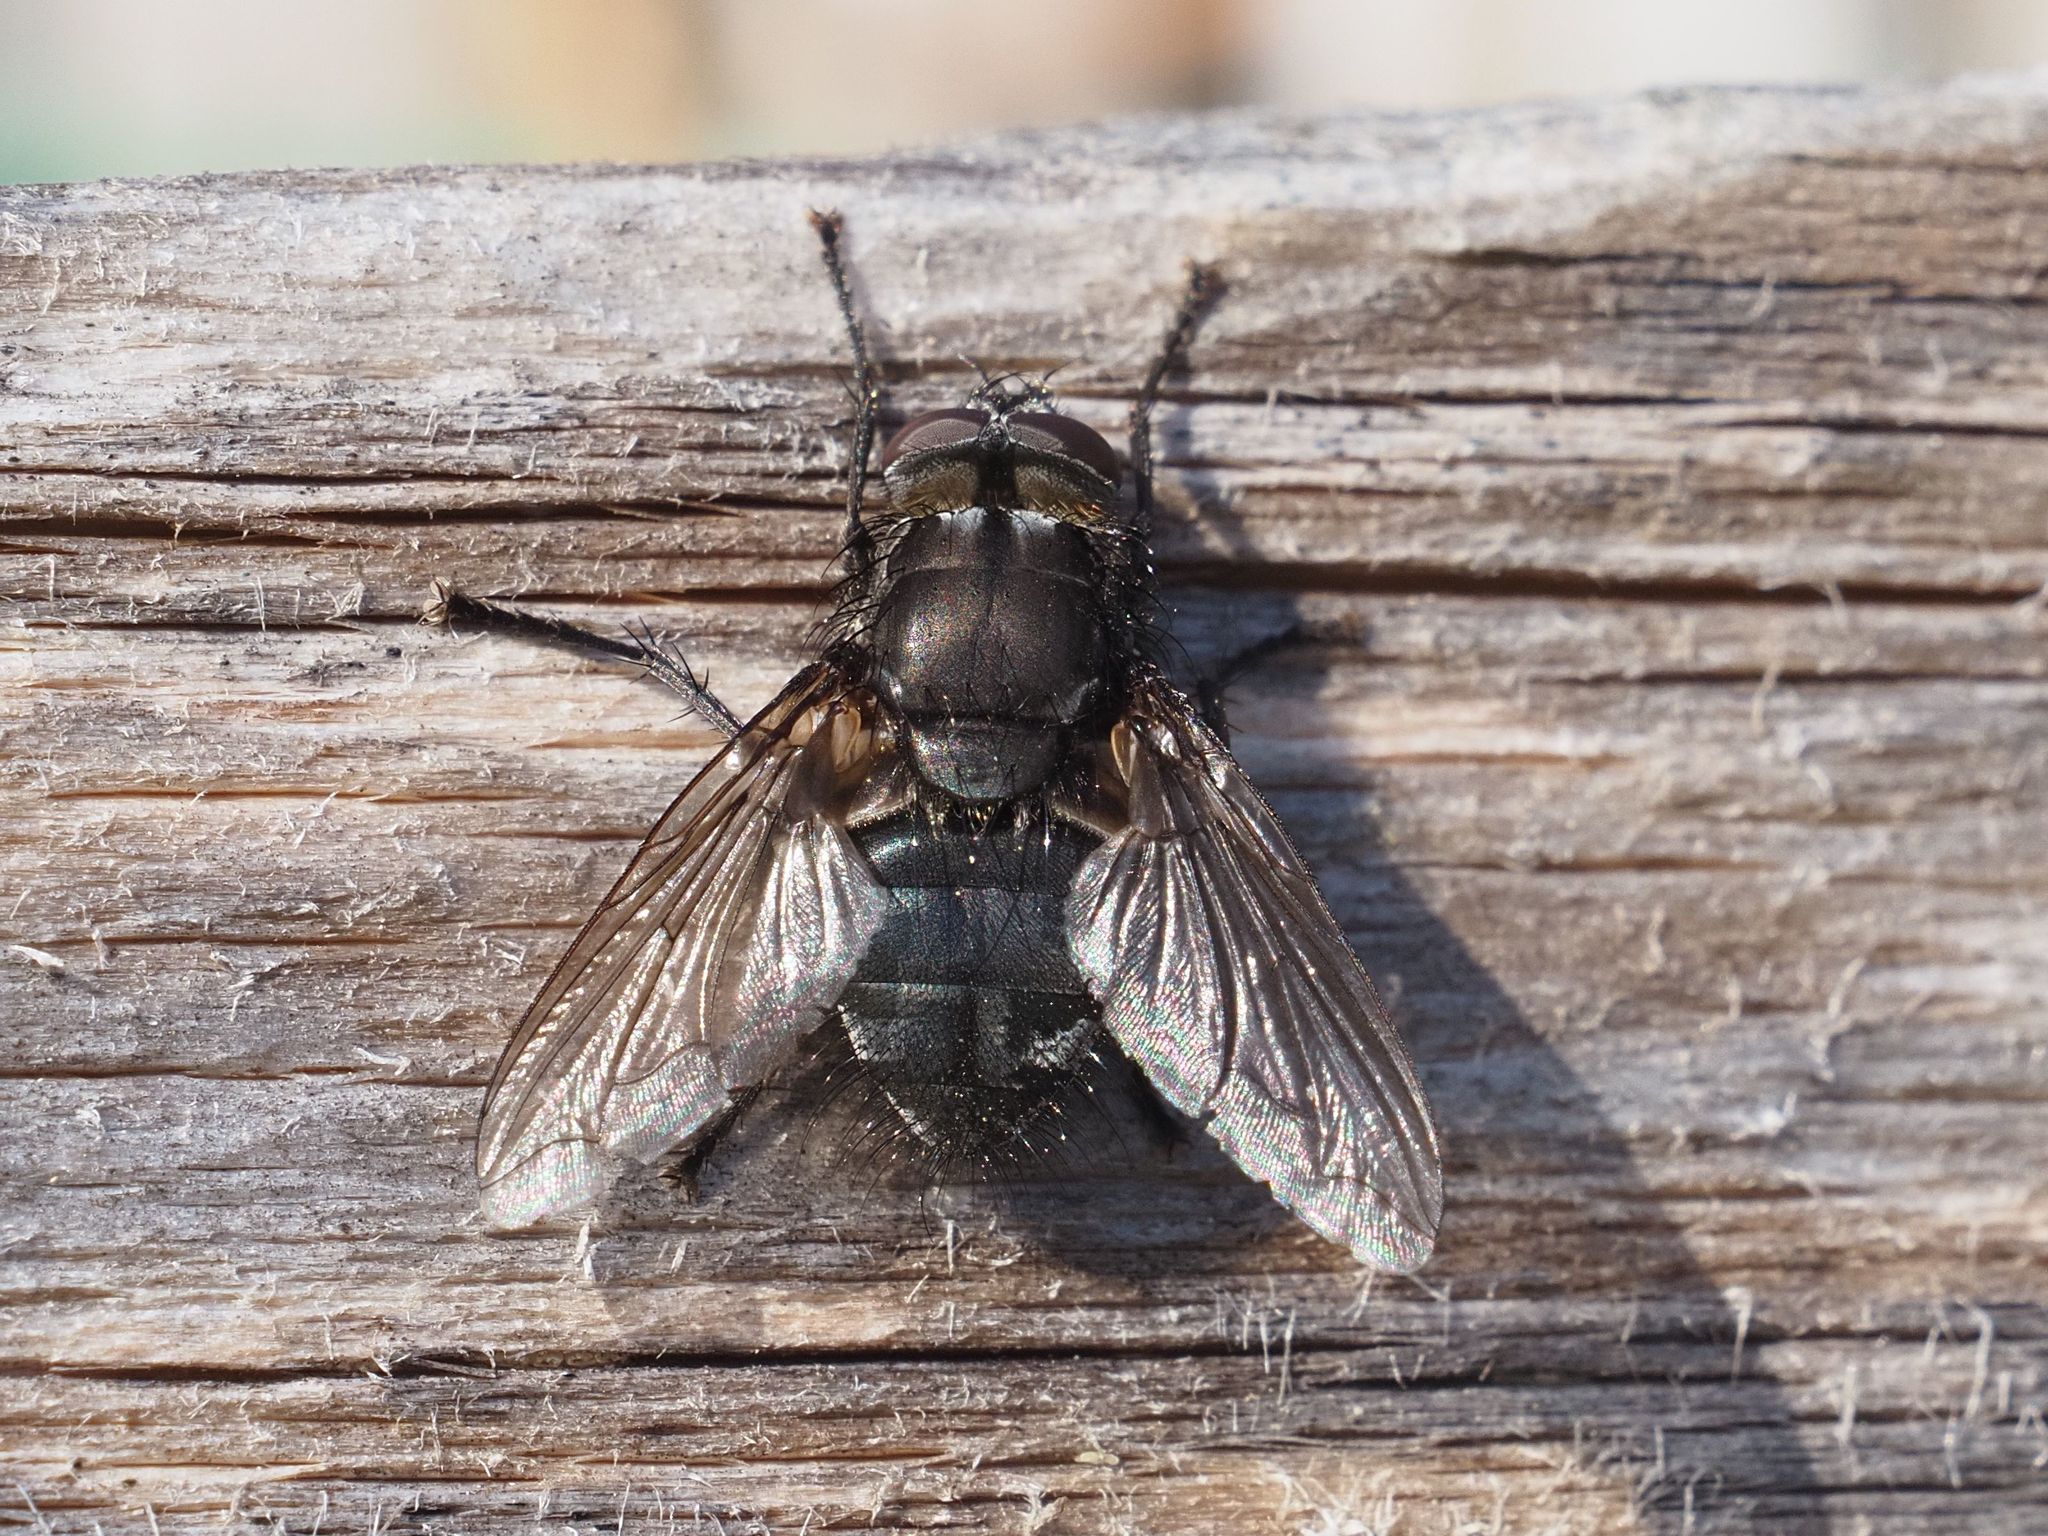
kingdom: Animalia
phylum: Arthropoda
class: Insecta
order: Diptera
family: Polleniidae
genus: Pollenia
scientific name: Pollenia vagabunda
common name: Vagabund cluster fly
